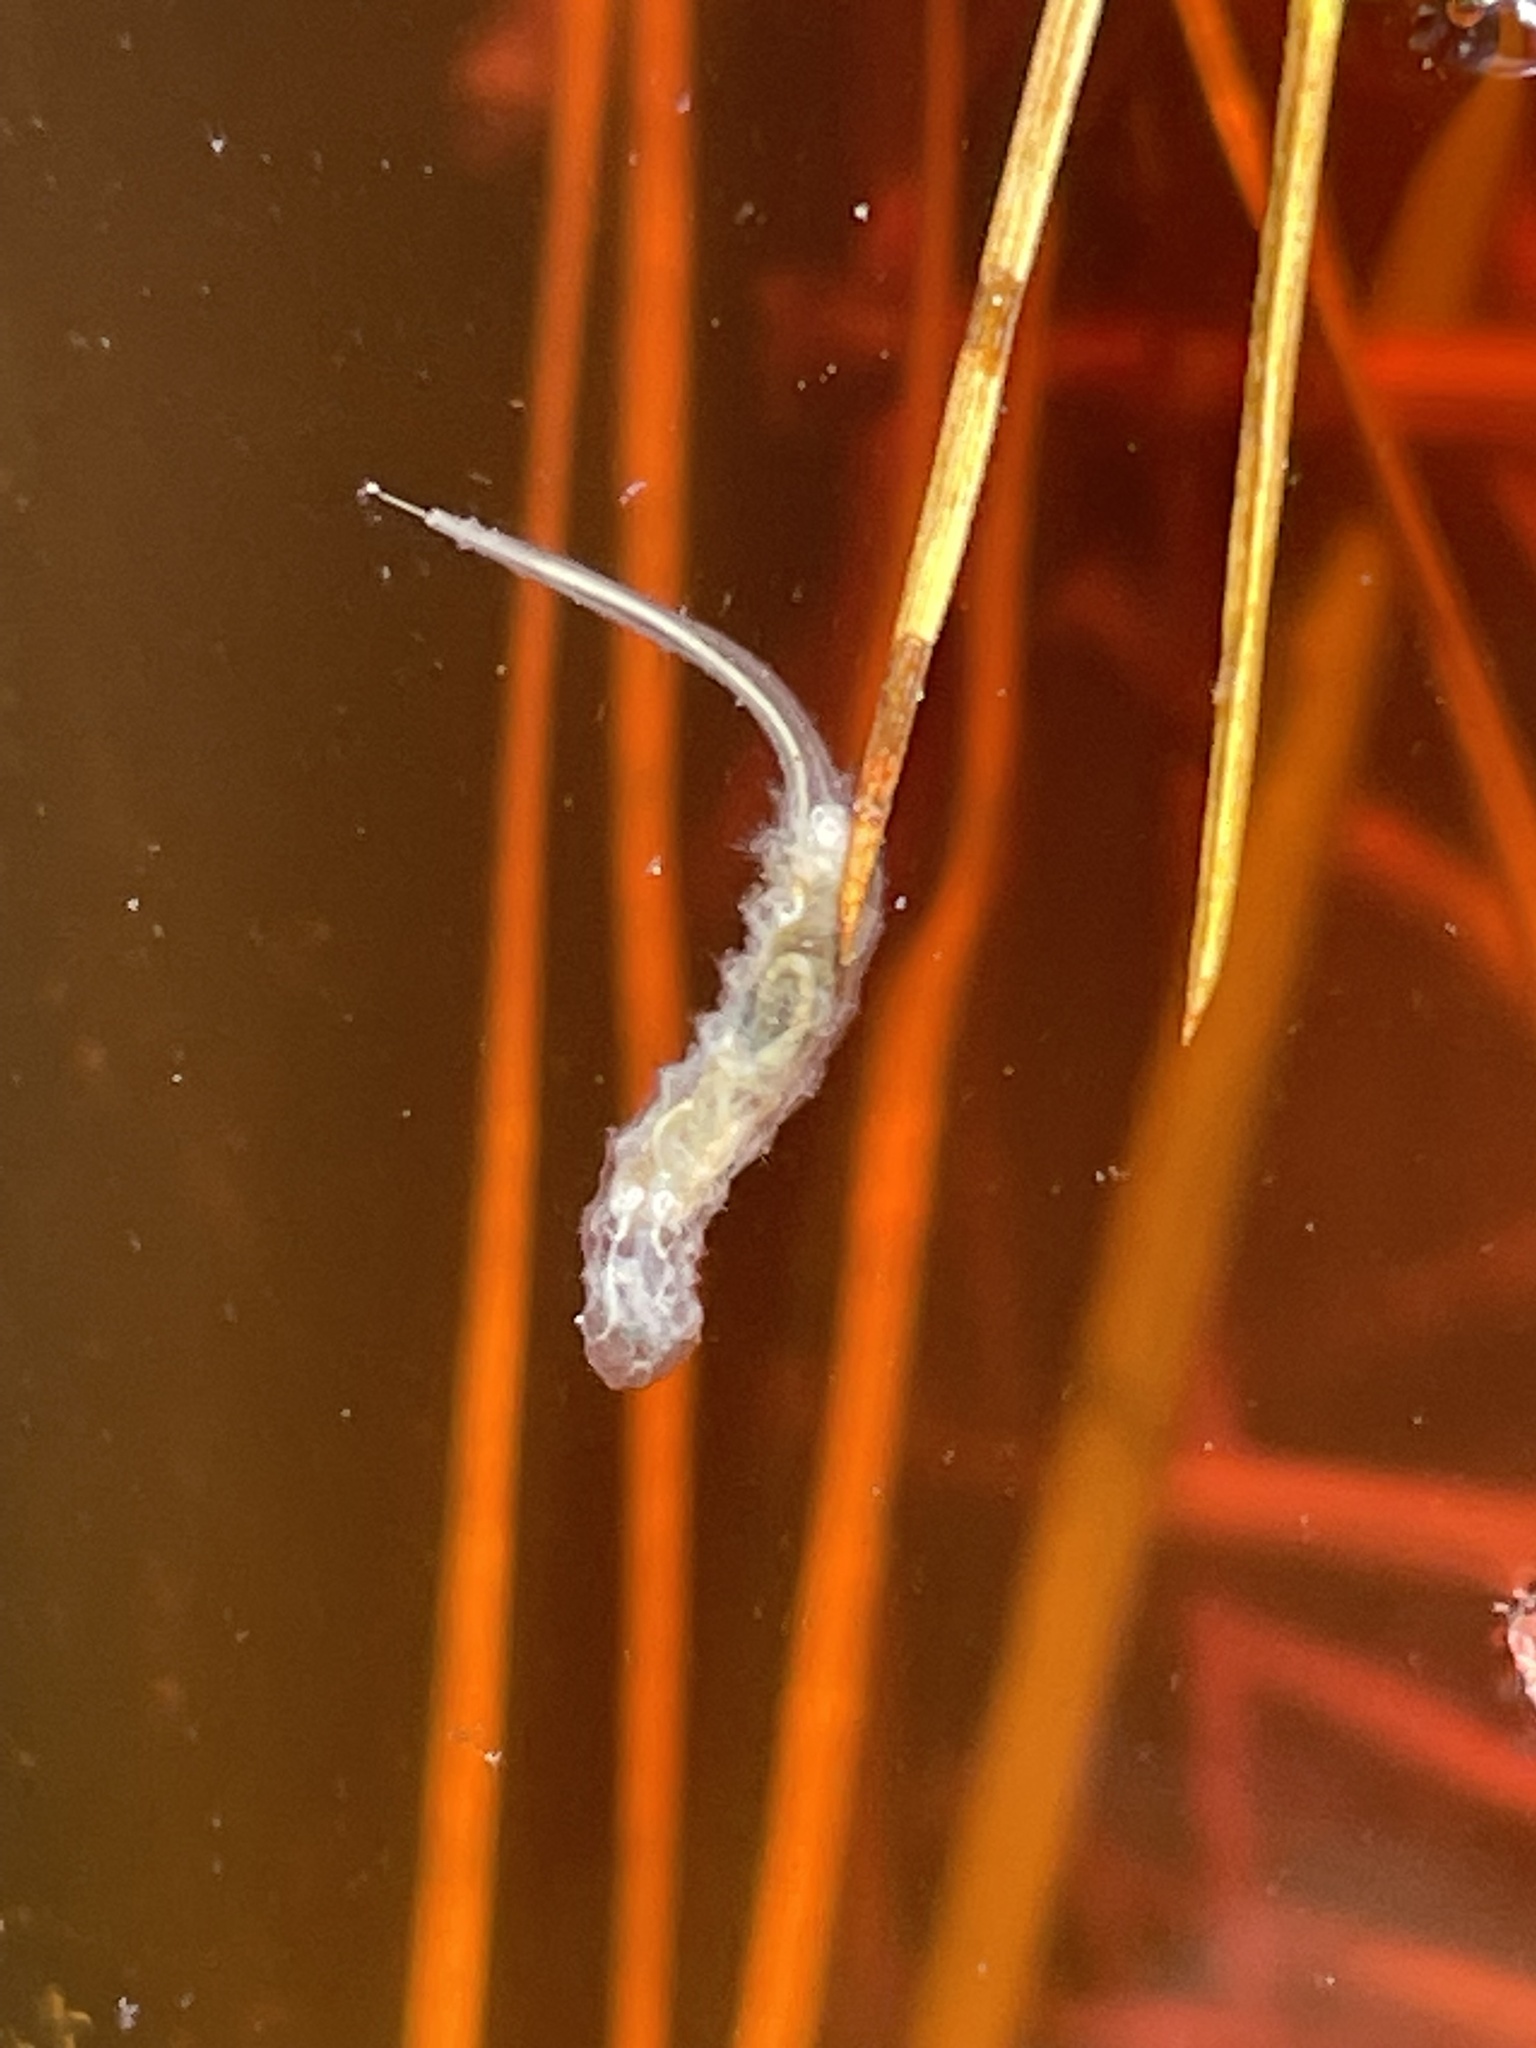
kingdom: Animalia
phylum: Arthropoda
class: Insecta
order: Diptera
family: Syrphidae
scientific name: Syrphidae
